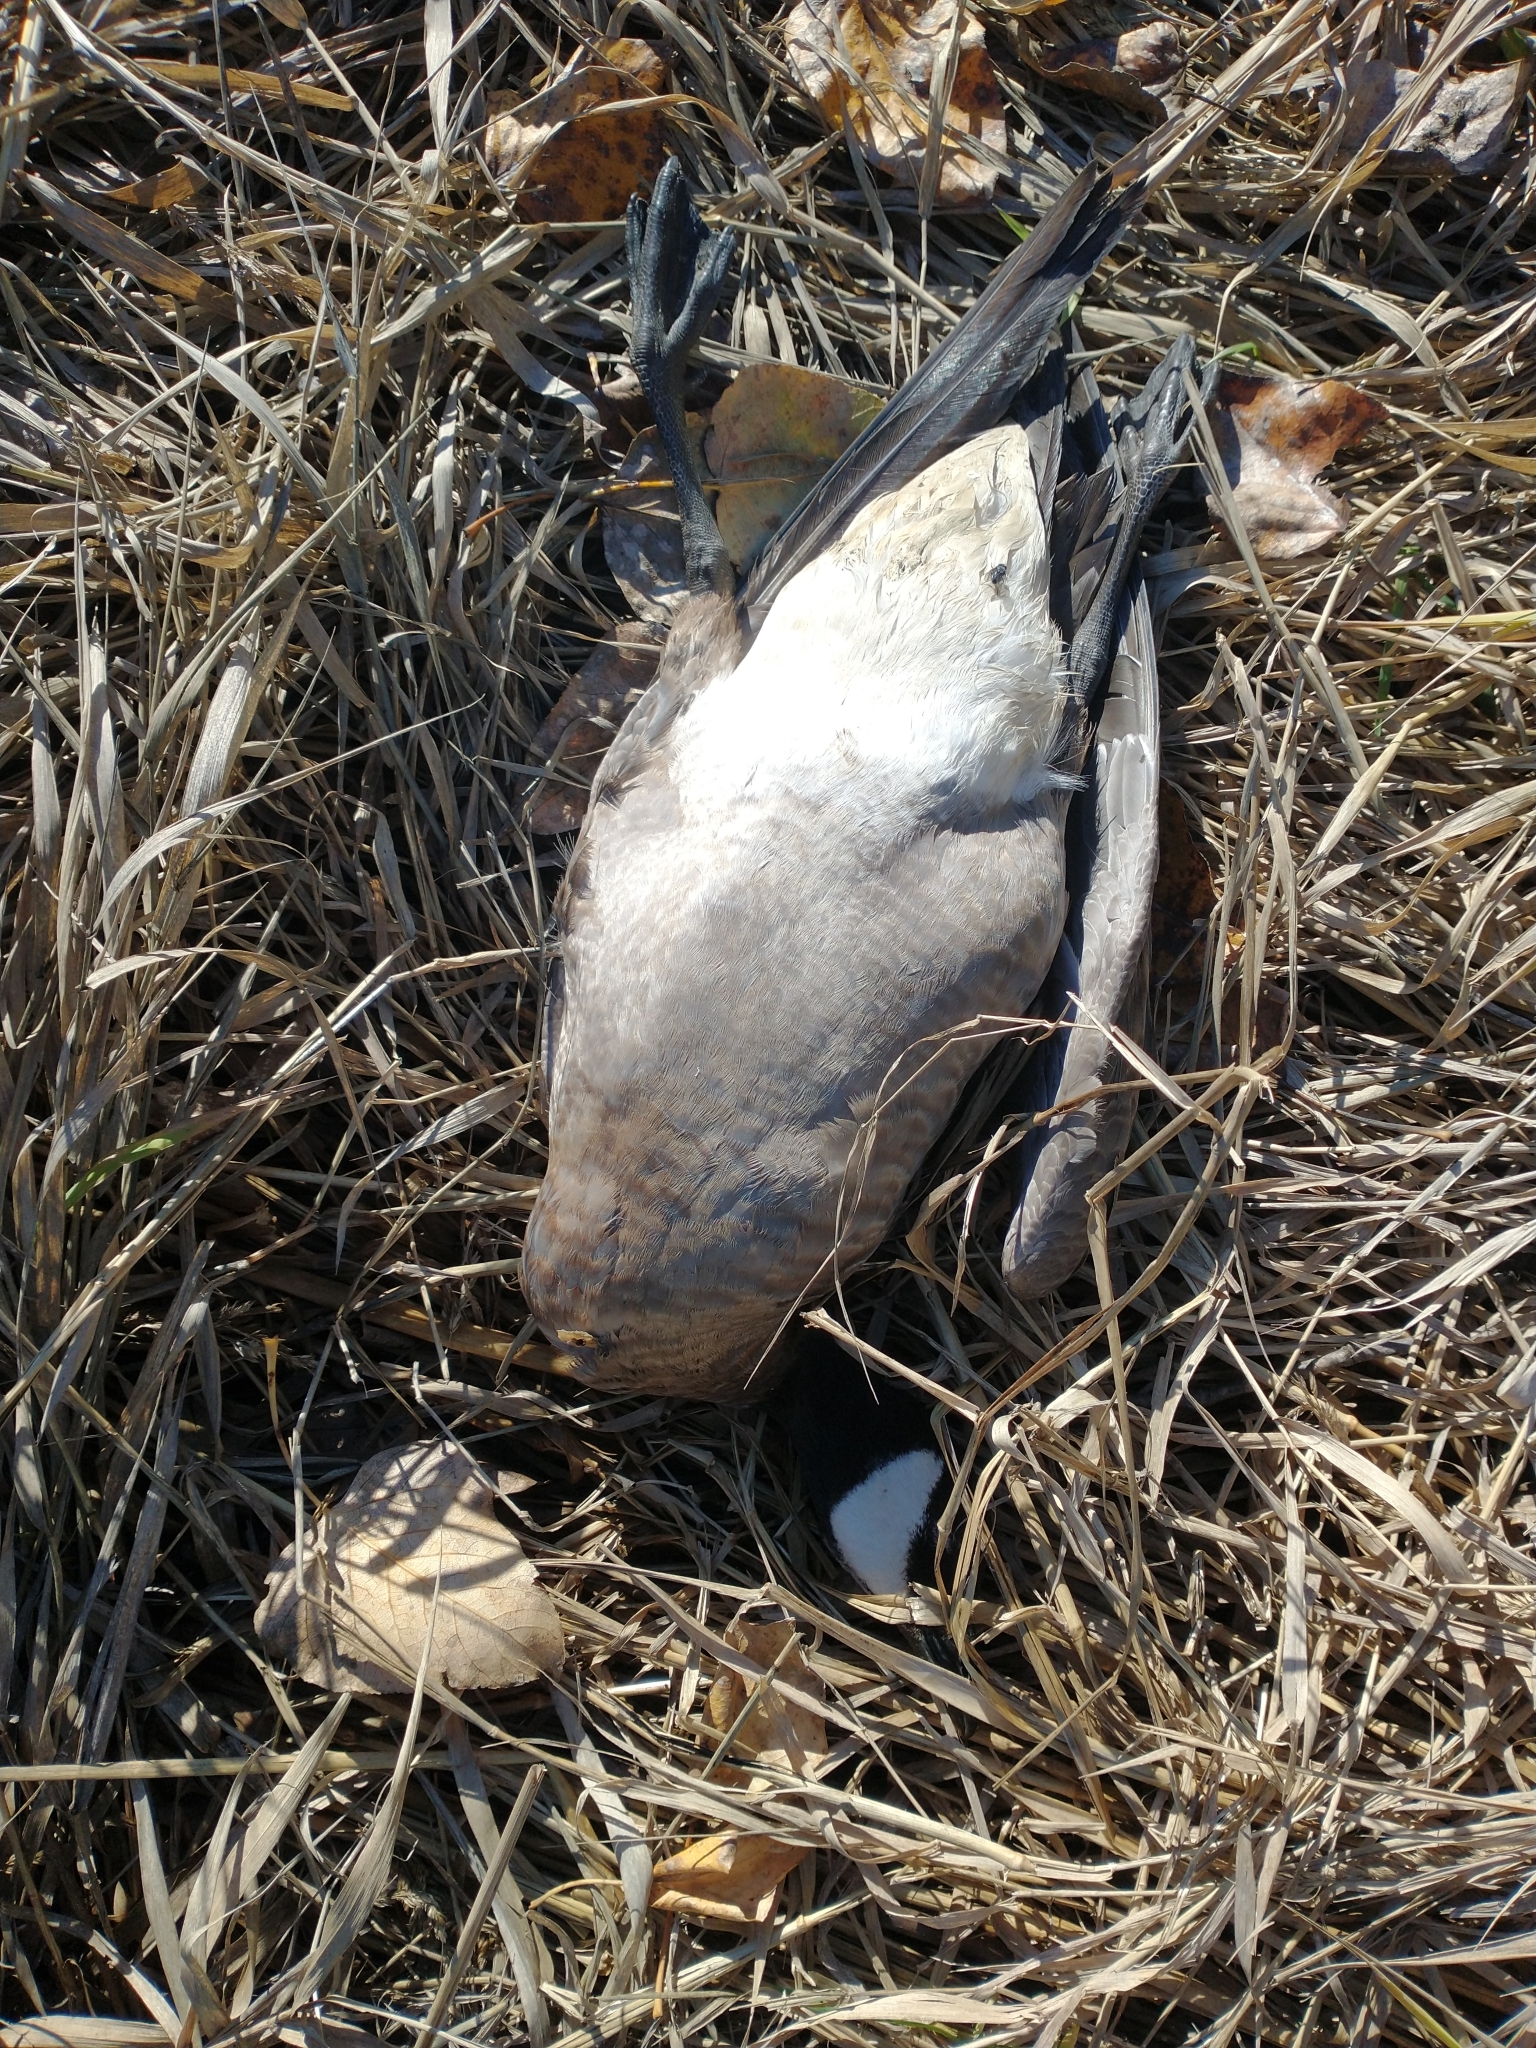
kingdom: Animalia
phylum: Chordata
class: Aves
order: Anseriformes
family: Anatidae
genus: Branta
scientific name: Branta canadensis
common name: Canada goose
